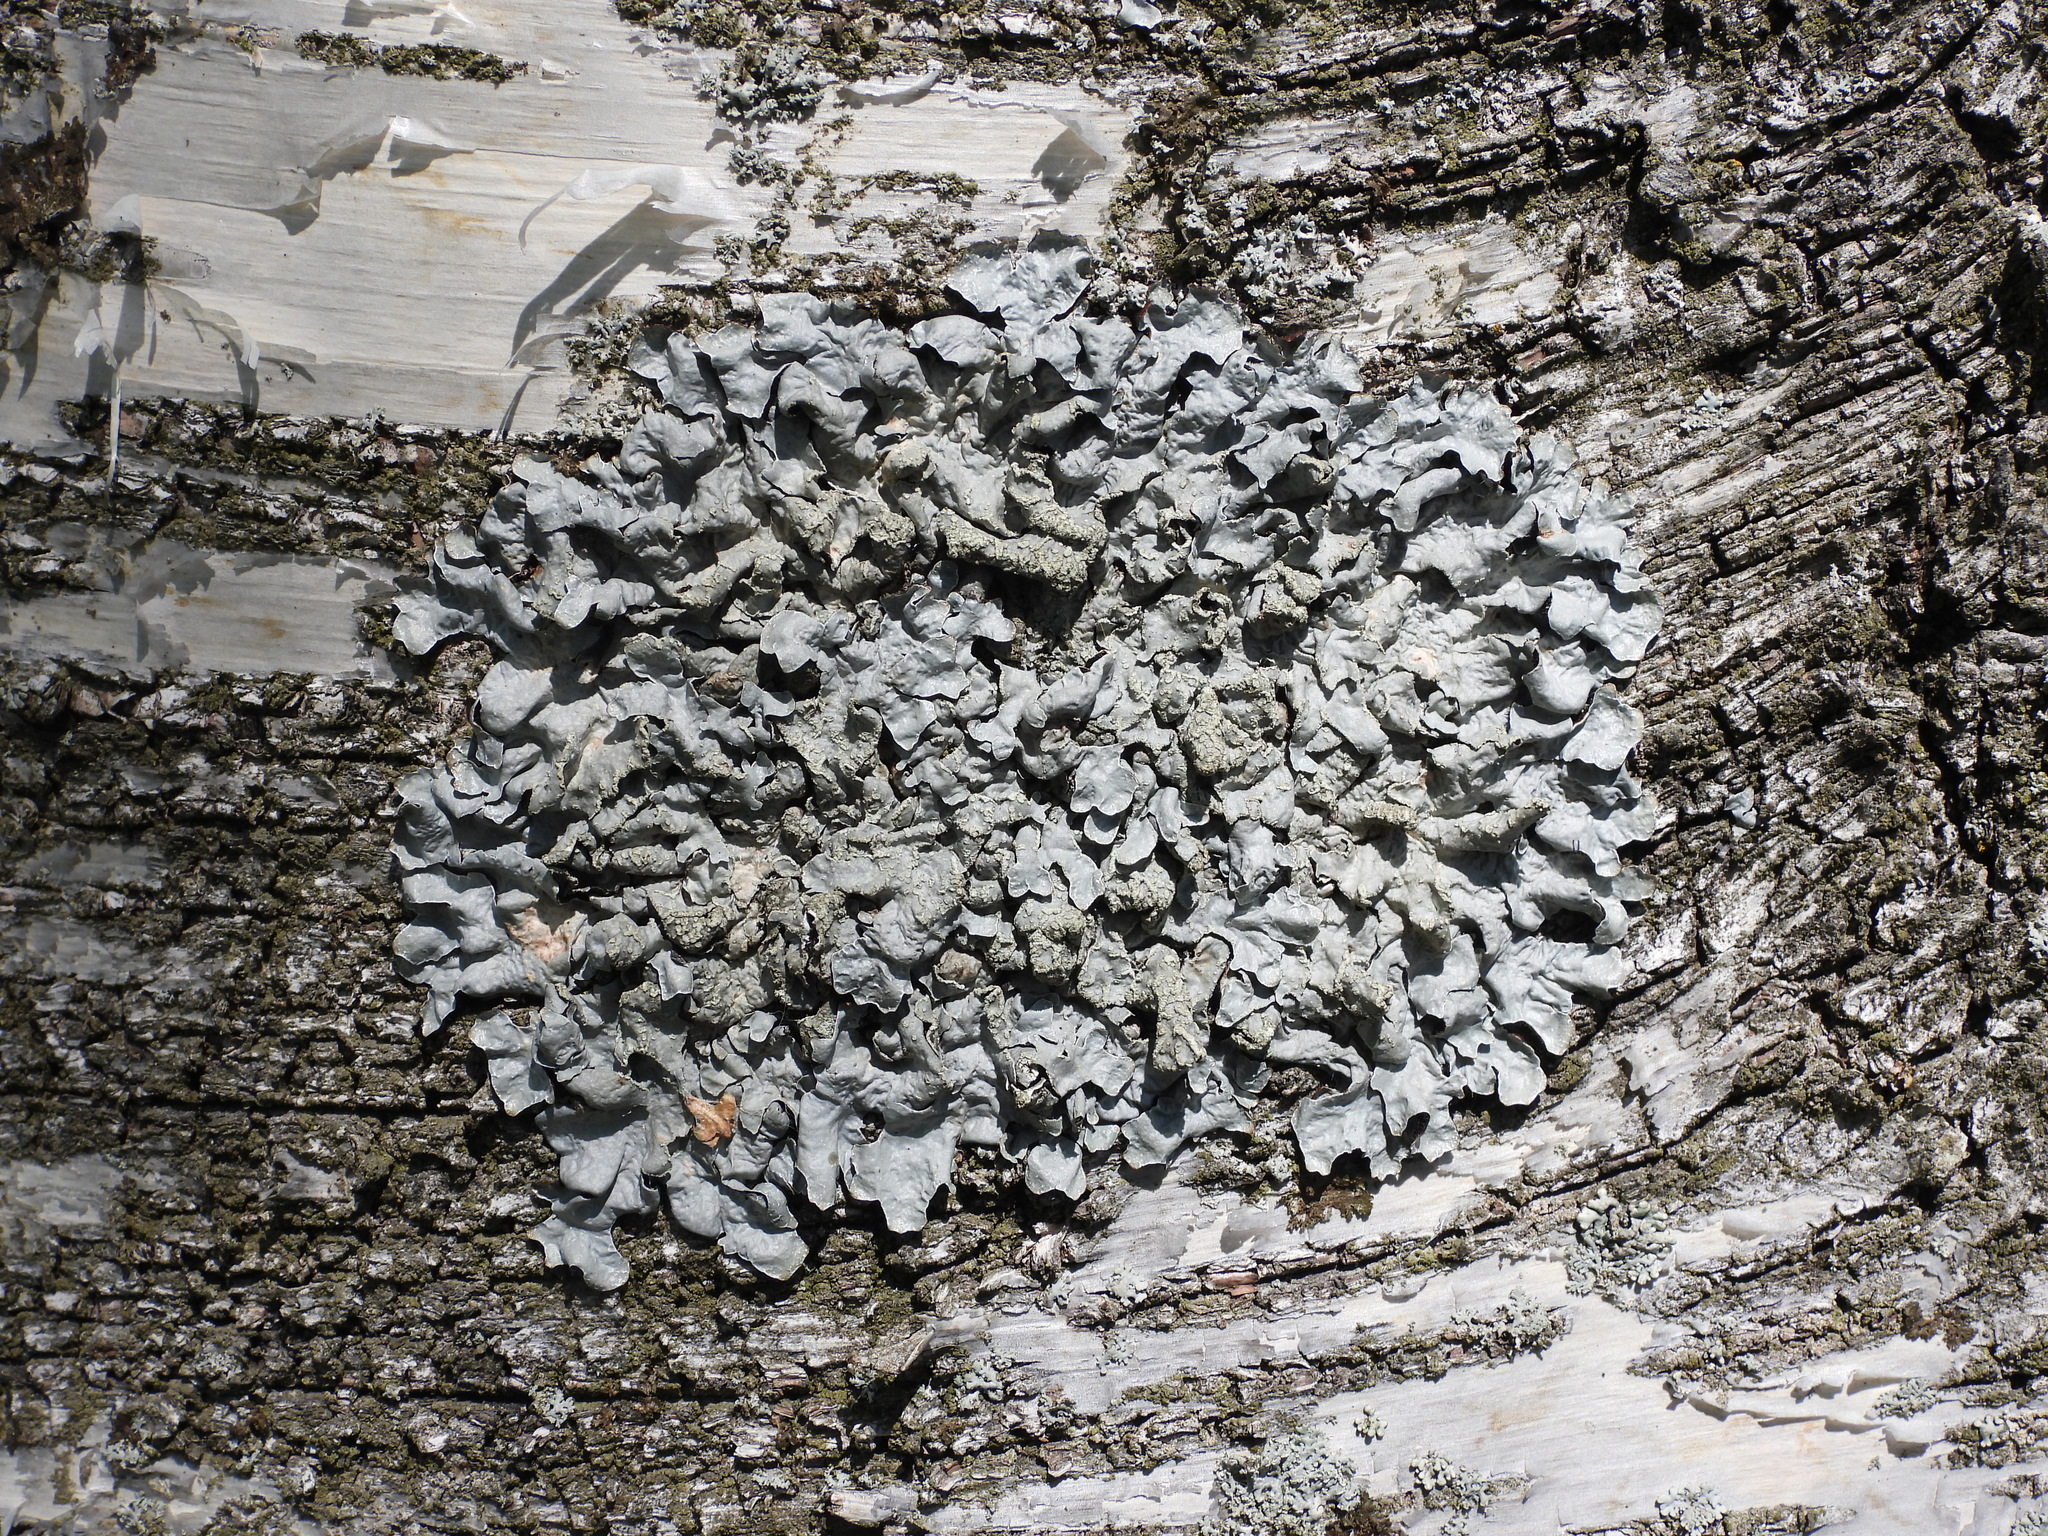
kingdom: Fungi
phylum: Ascomycota
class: Lecanoromycetes
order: Lecanorales
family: Parmeliaceae
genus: Parmelia
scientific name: Parmelia sulcata
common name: Netted shield lichen
